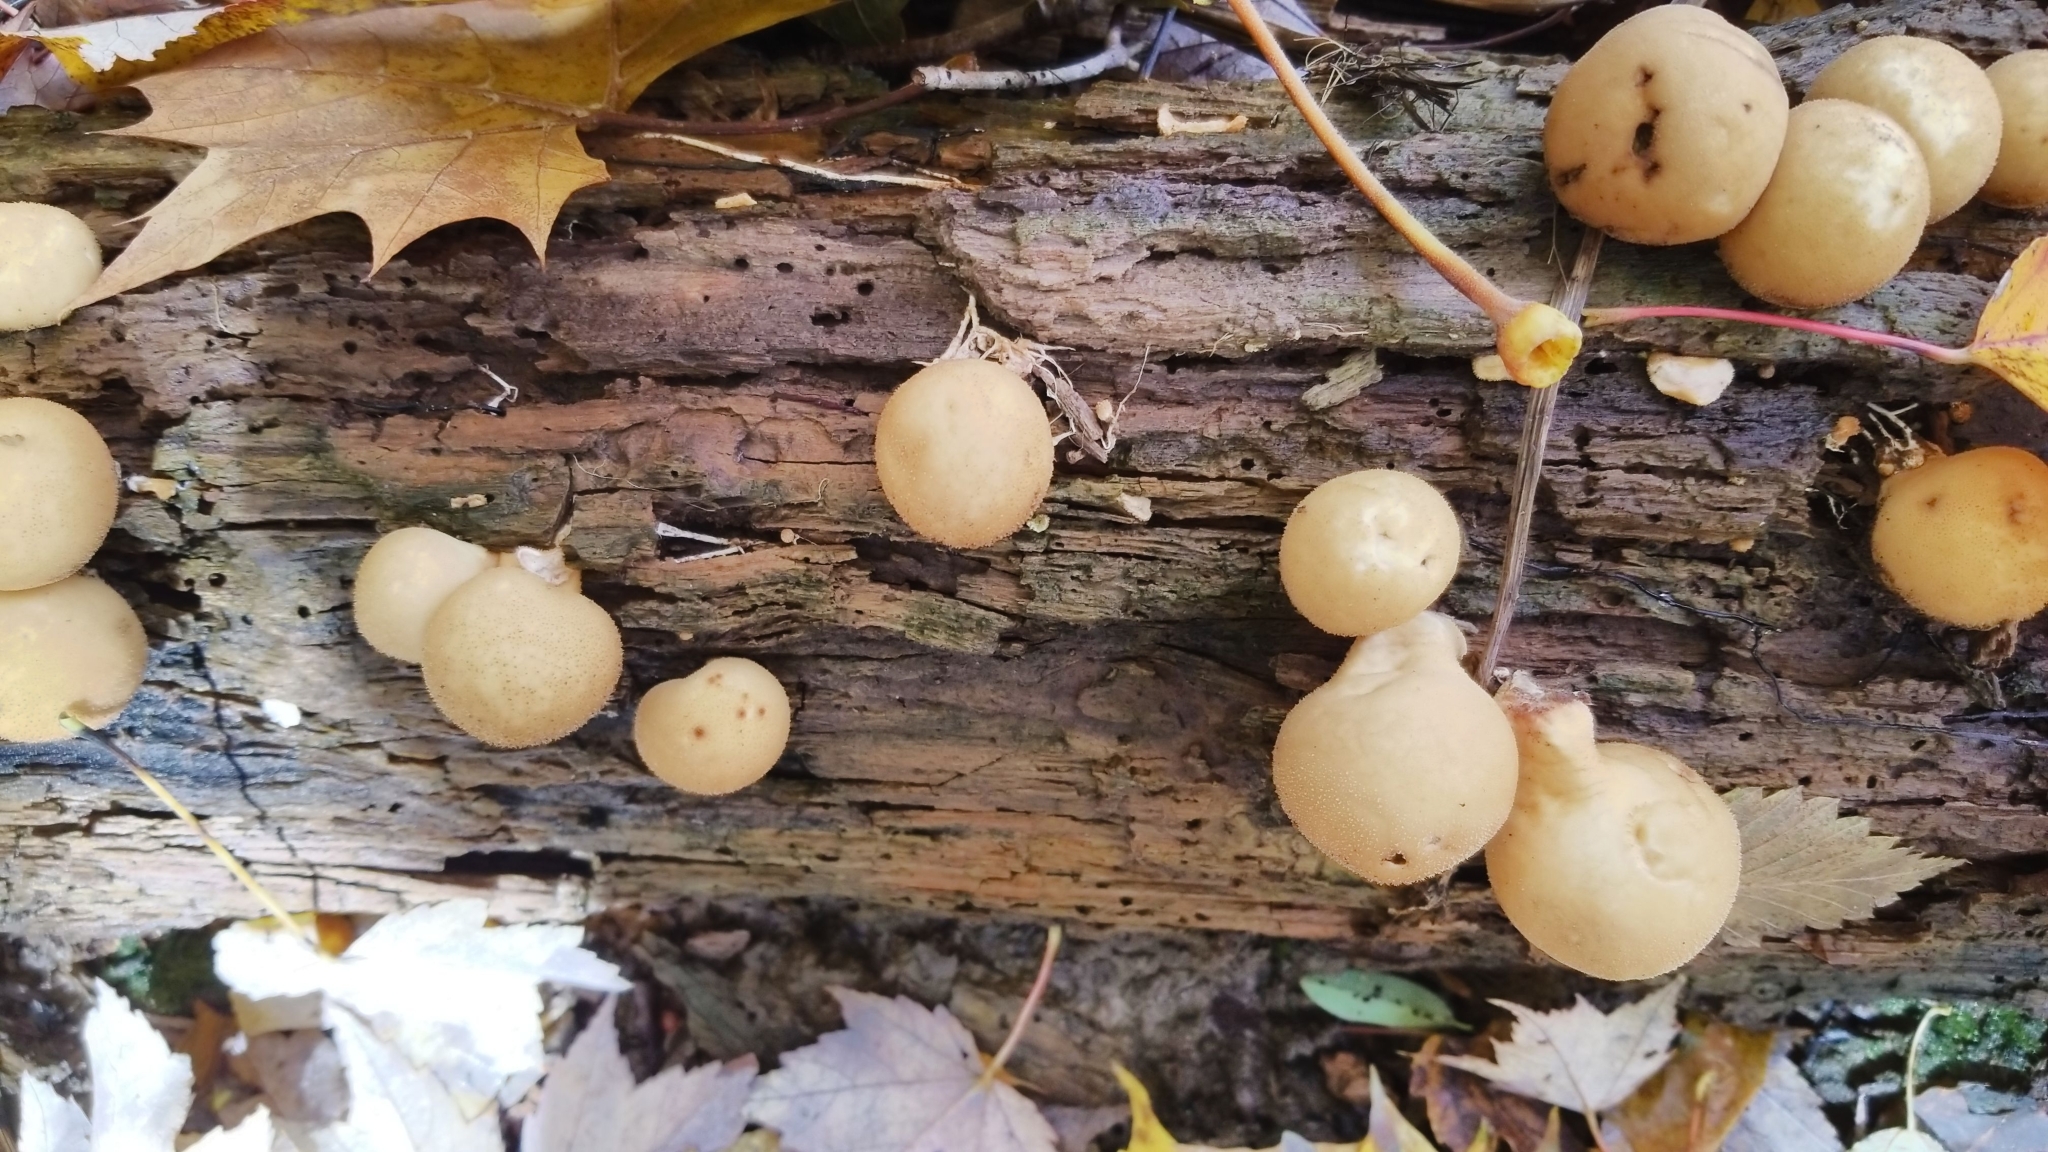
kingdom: Fungi
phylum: Basidiomycota
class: Agaricomycetes
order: Agaricales
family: Lycoperdaceae
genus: Apioperdon
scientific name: Apioperdon pyriforme
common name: Pear-shaped puffball
